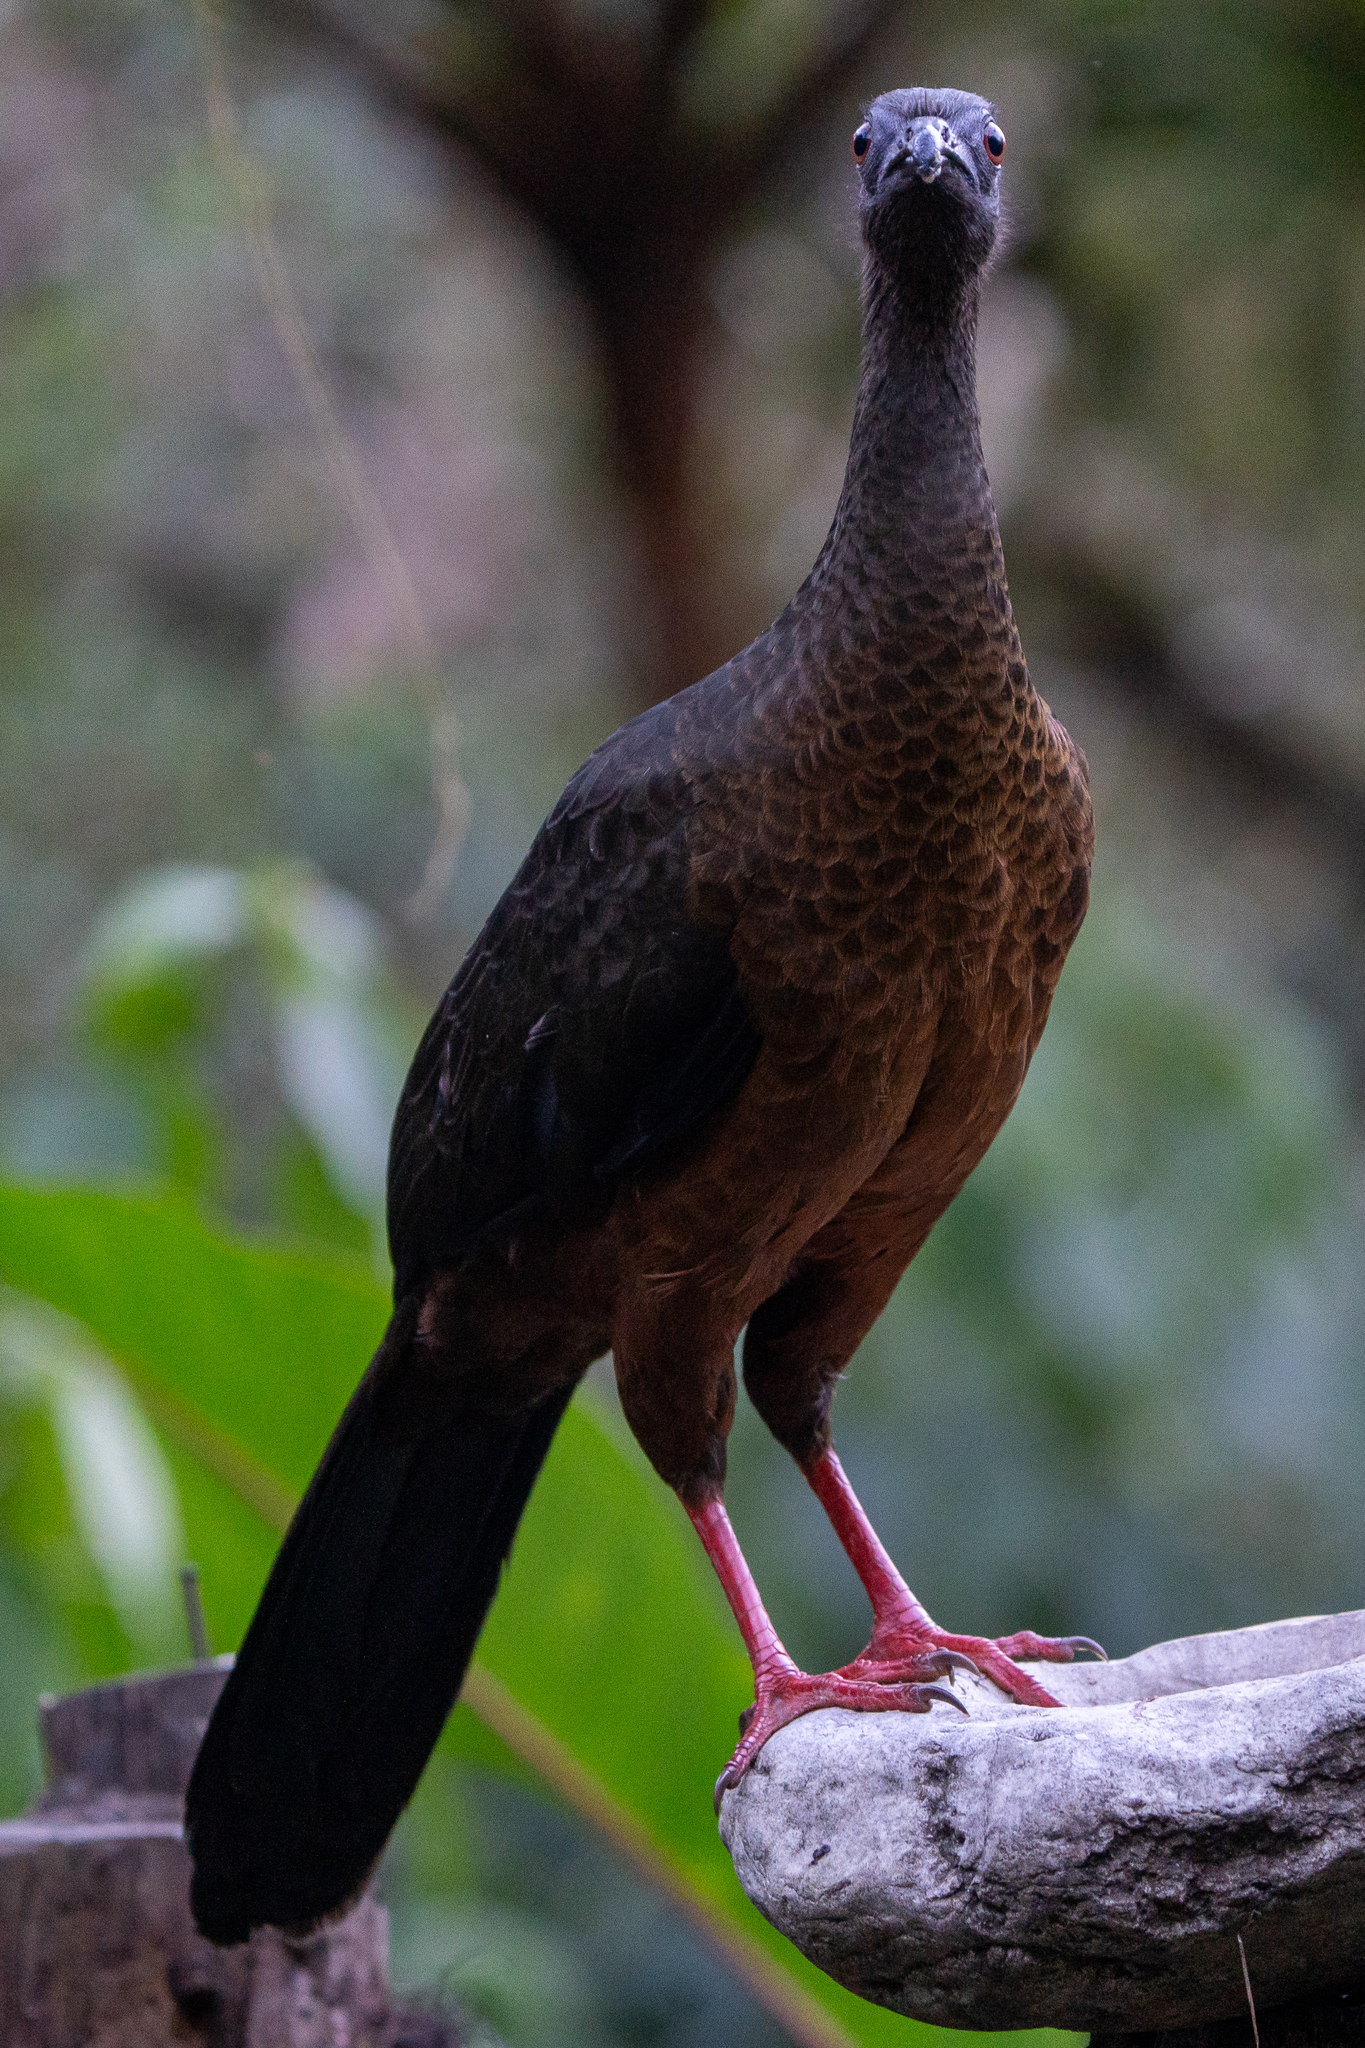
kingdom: Animalia
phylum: Chordata
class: Aves
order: Galliformes
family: Cracidae
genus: Chamaepetes
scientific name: Chamaepetes goudotii
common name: Sickle-winged guan
